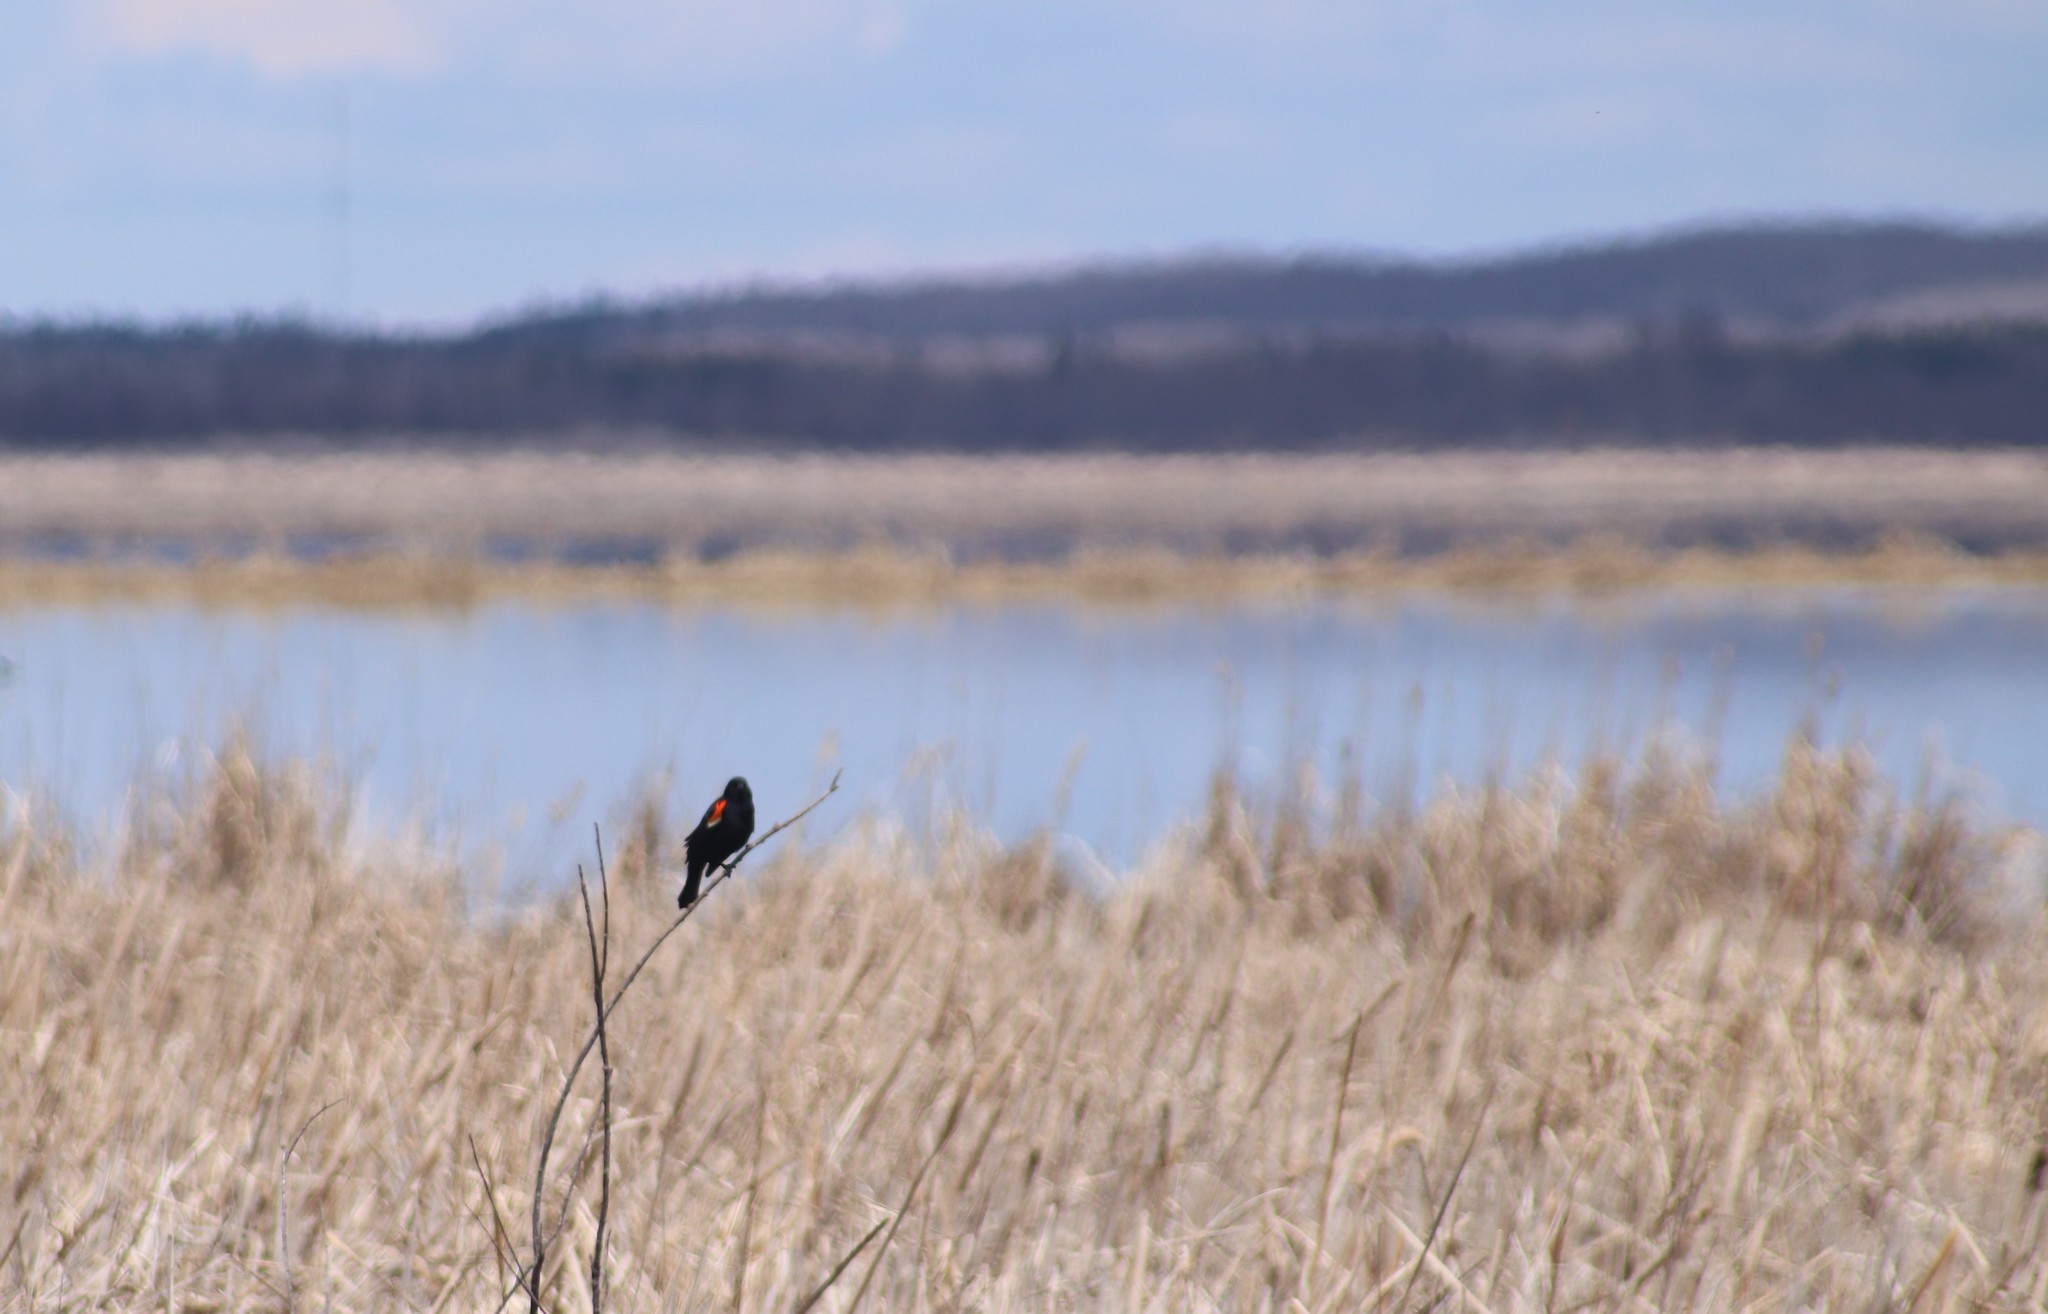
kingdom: Animalia
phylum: Chordata
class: Aves
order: Passeriformes
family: Icteridae
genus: Agelaius
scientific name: Agelaius phoeniceus
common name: Red-winged blackbird
